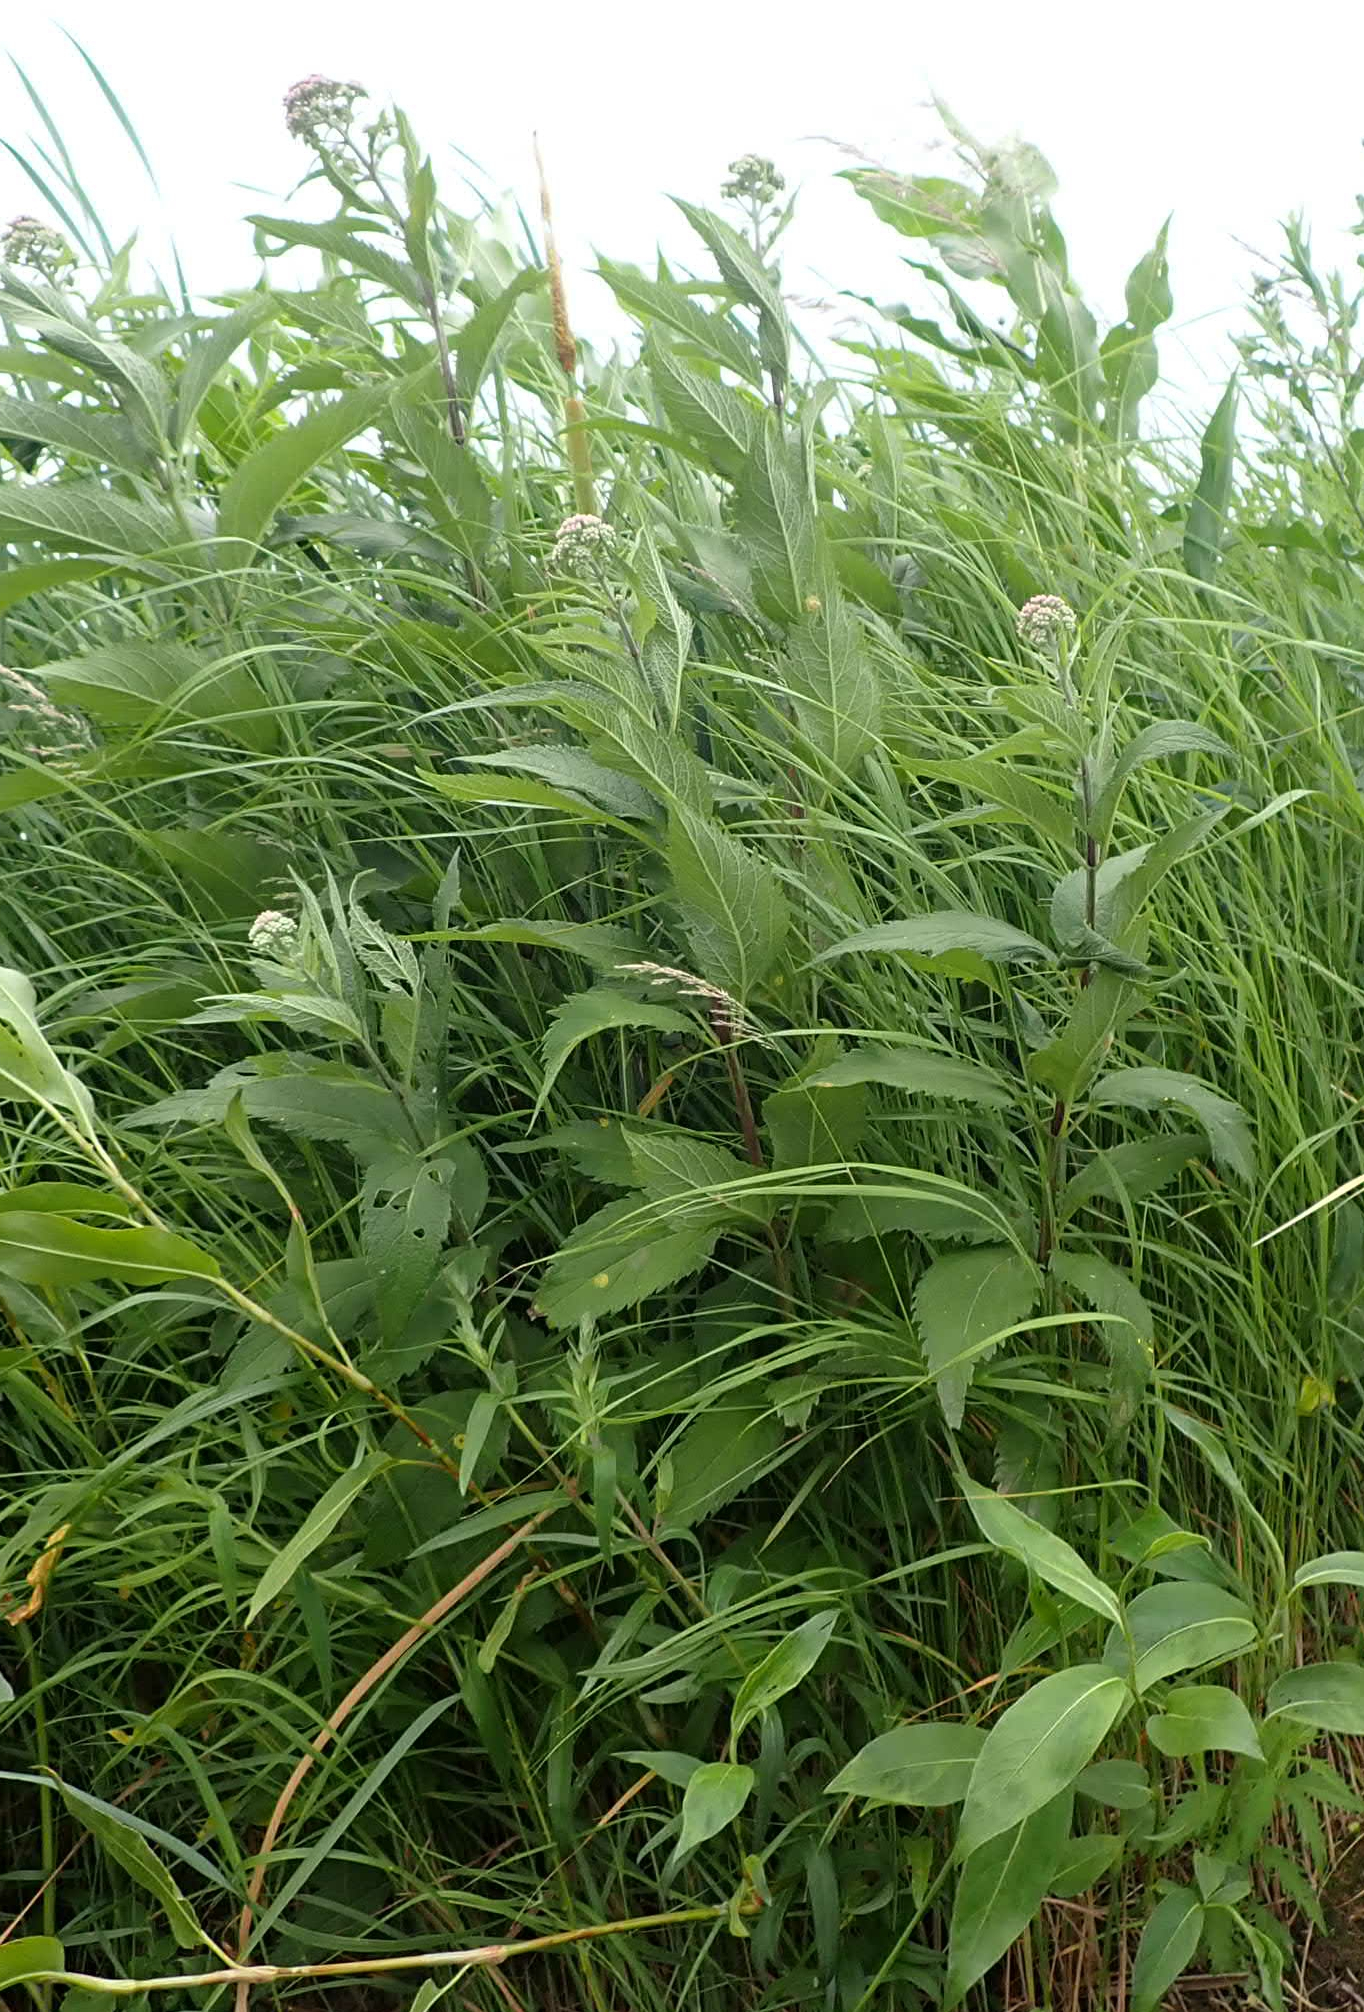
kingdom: Plantae
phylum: Tracheophyta
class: Magnoliopsida
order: Asterales
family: Asteraceae
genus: Eutrochium
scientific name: Eutrochium maculatum
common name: Spotted joe pye weed
